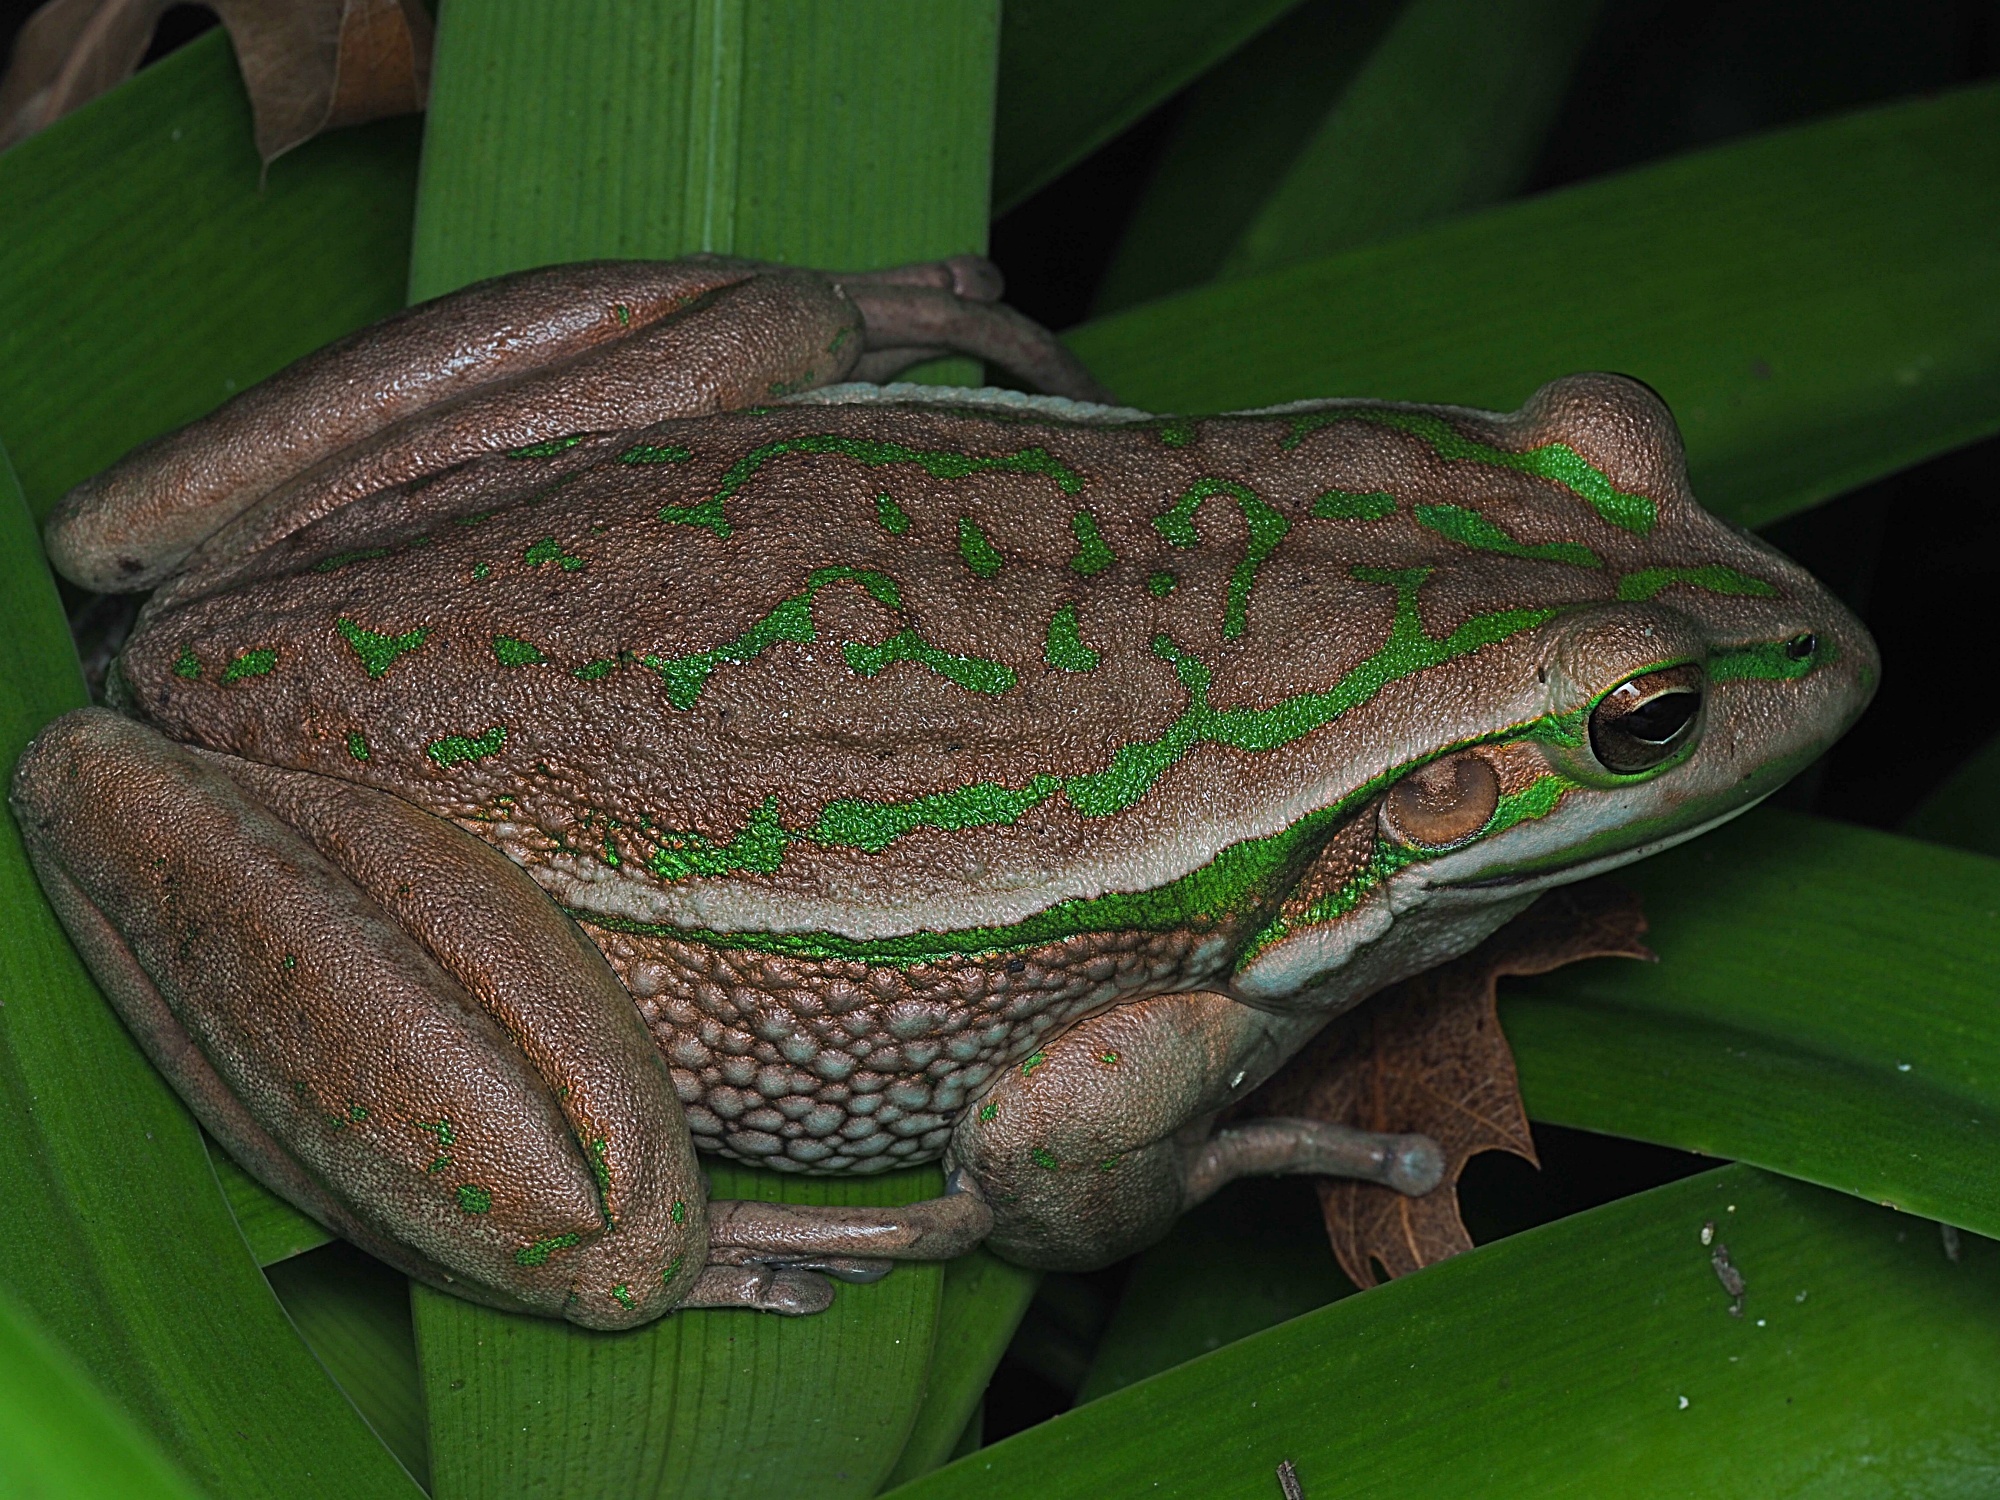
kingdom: Animalia
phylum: Chordata
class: Amphibia
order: Anura
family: Pelodryadidae
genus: Ranoidea
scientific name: Ranoidea aurea
